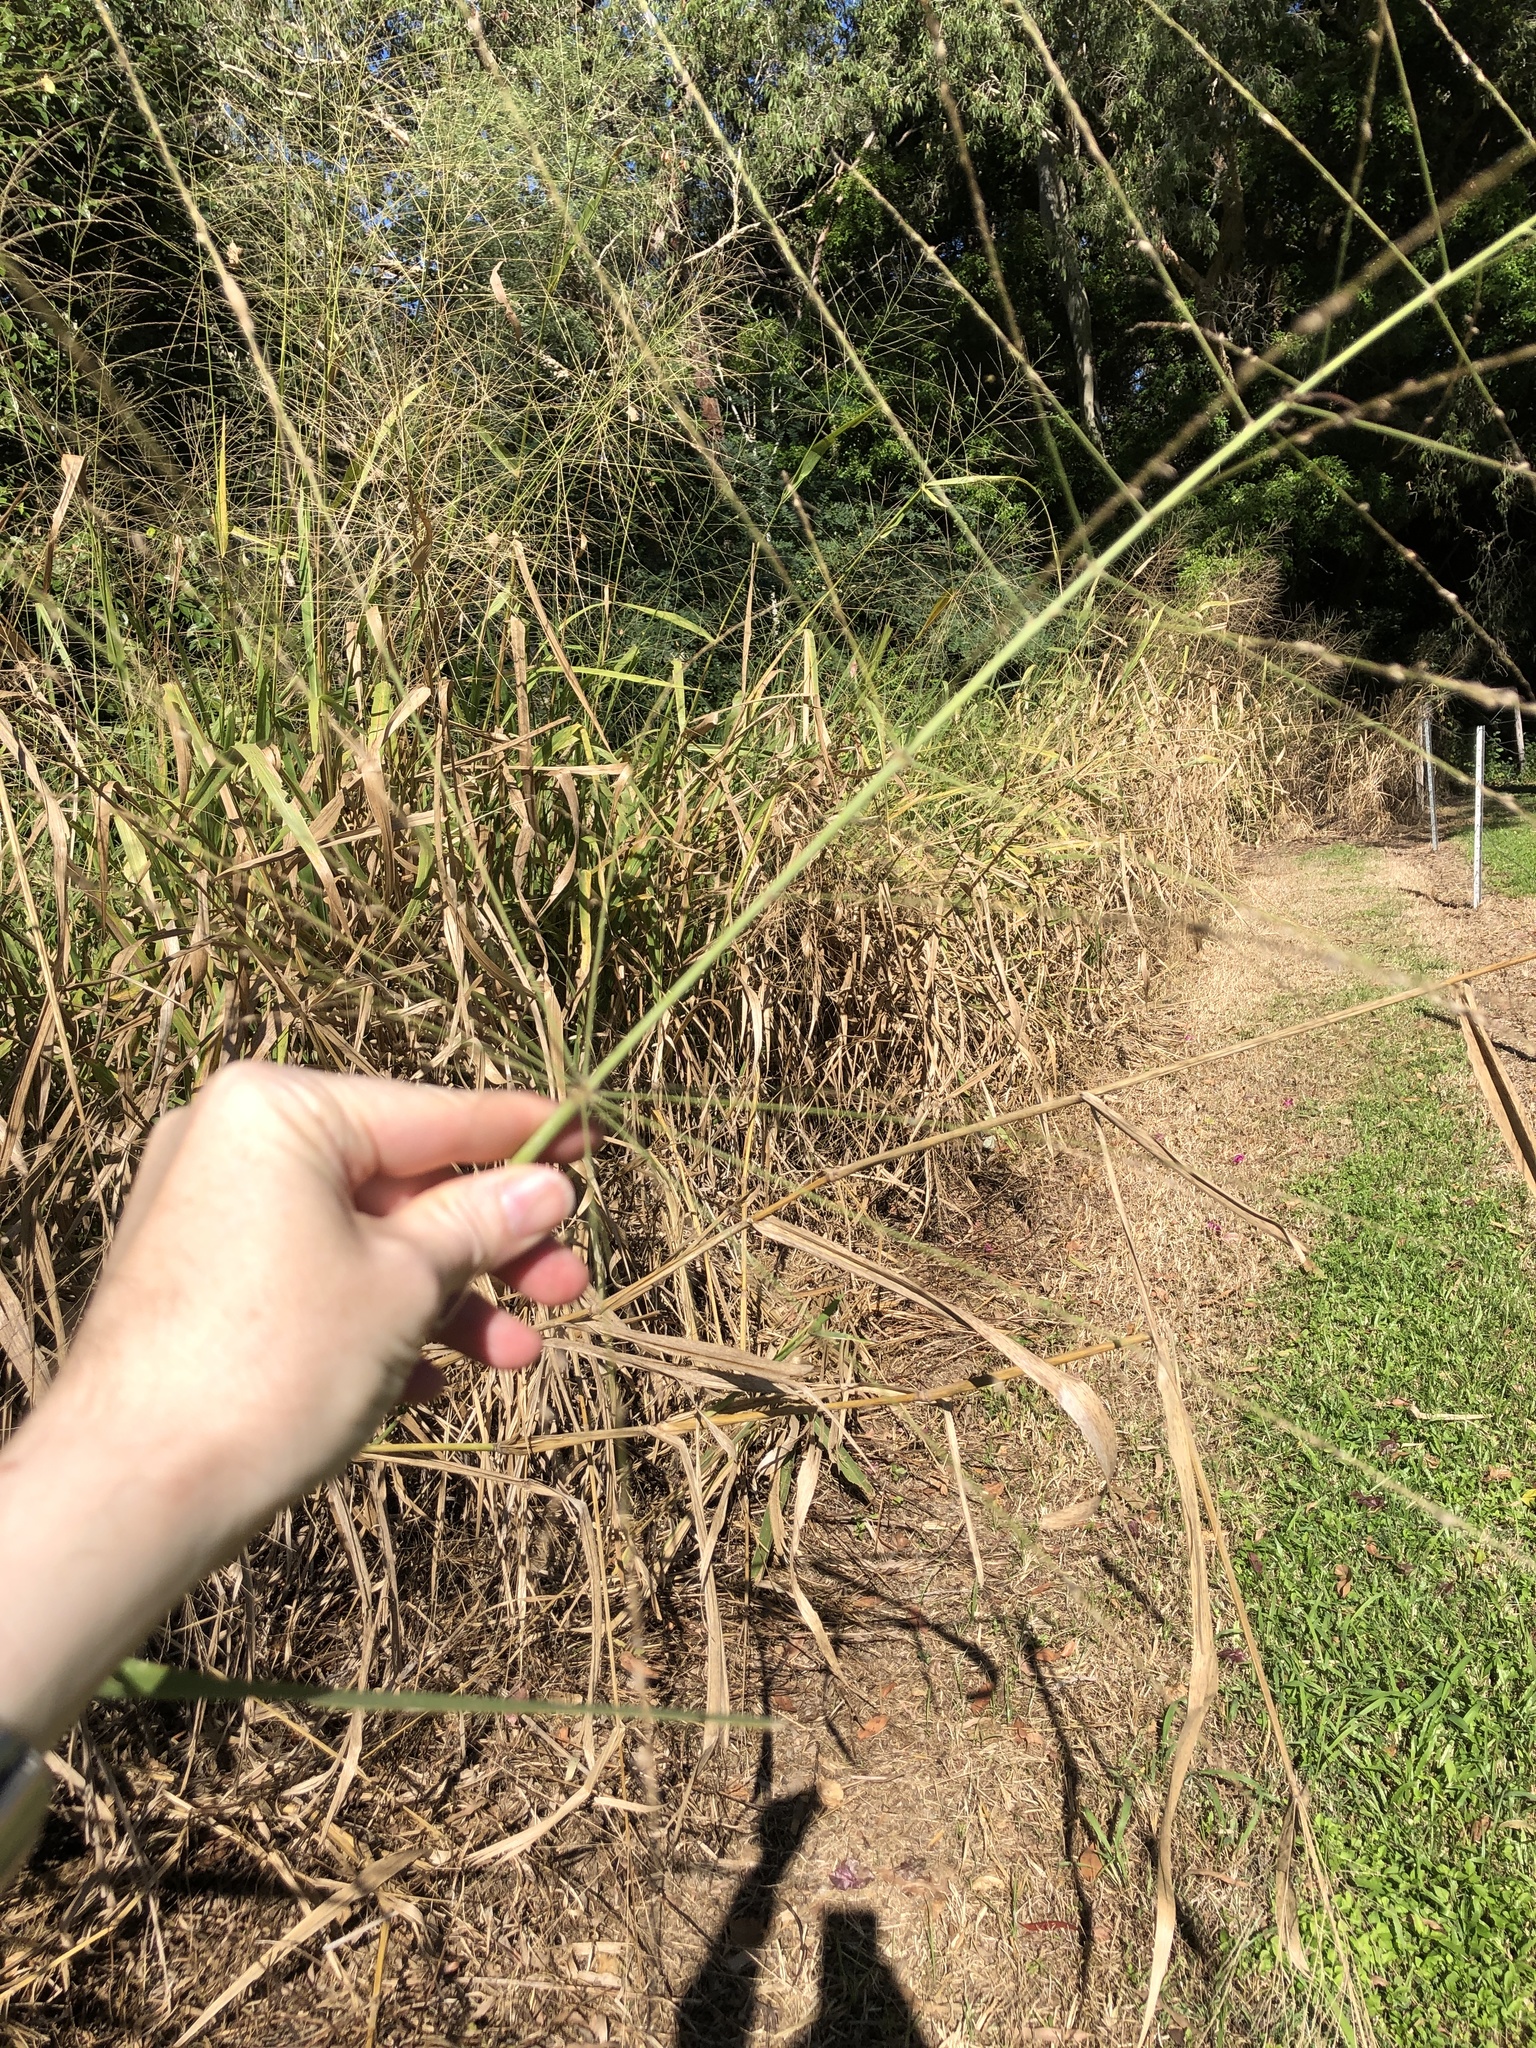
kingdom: Plantae
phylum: Tracheophyta
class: Liliopsida
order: Poales
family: Poaceae
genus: Megathyrsus
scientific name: Megathyrsus maximus
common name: Guineagrass
